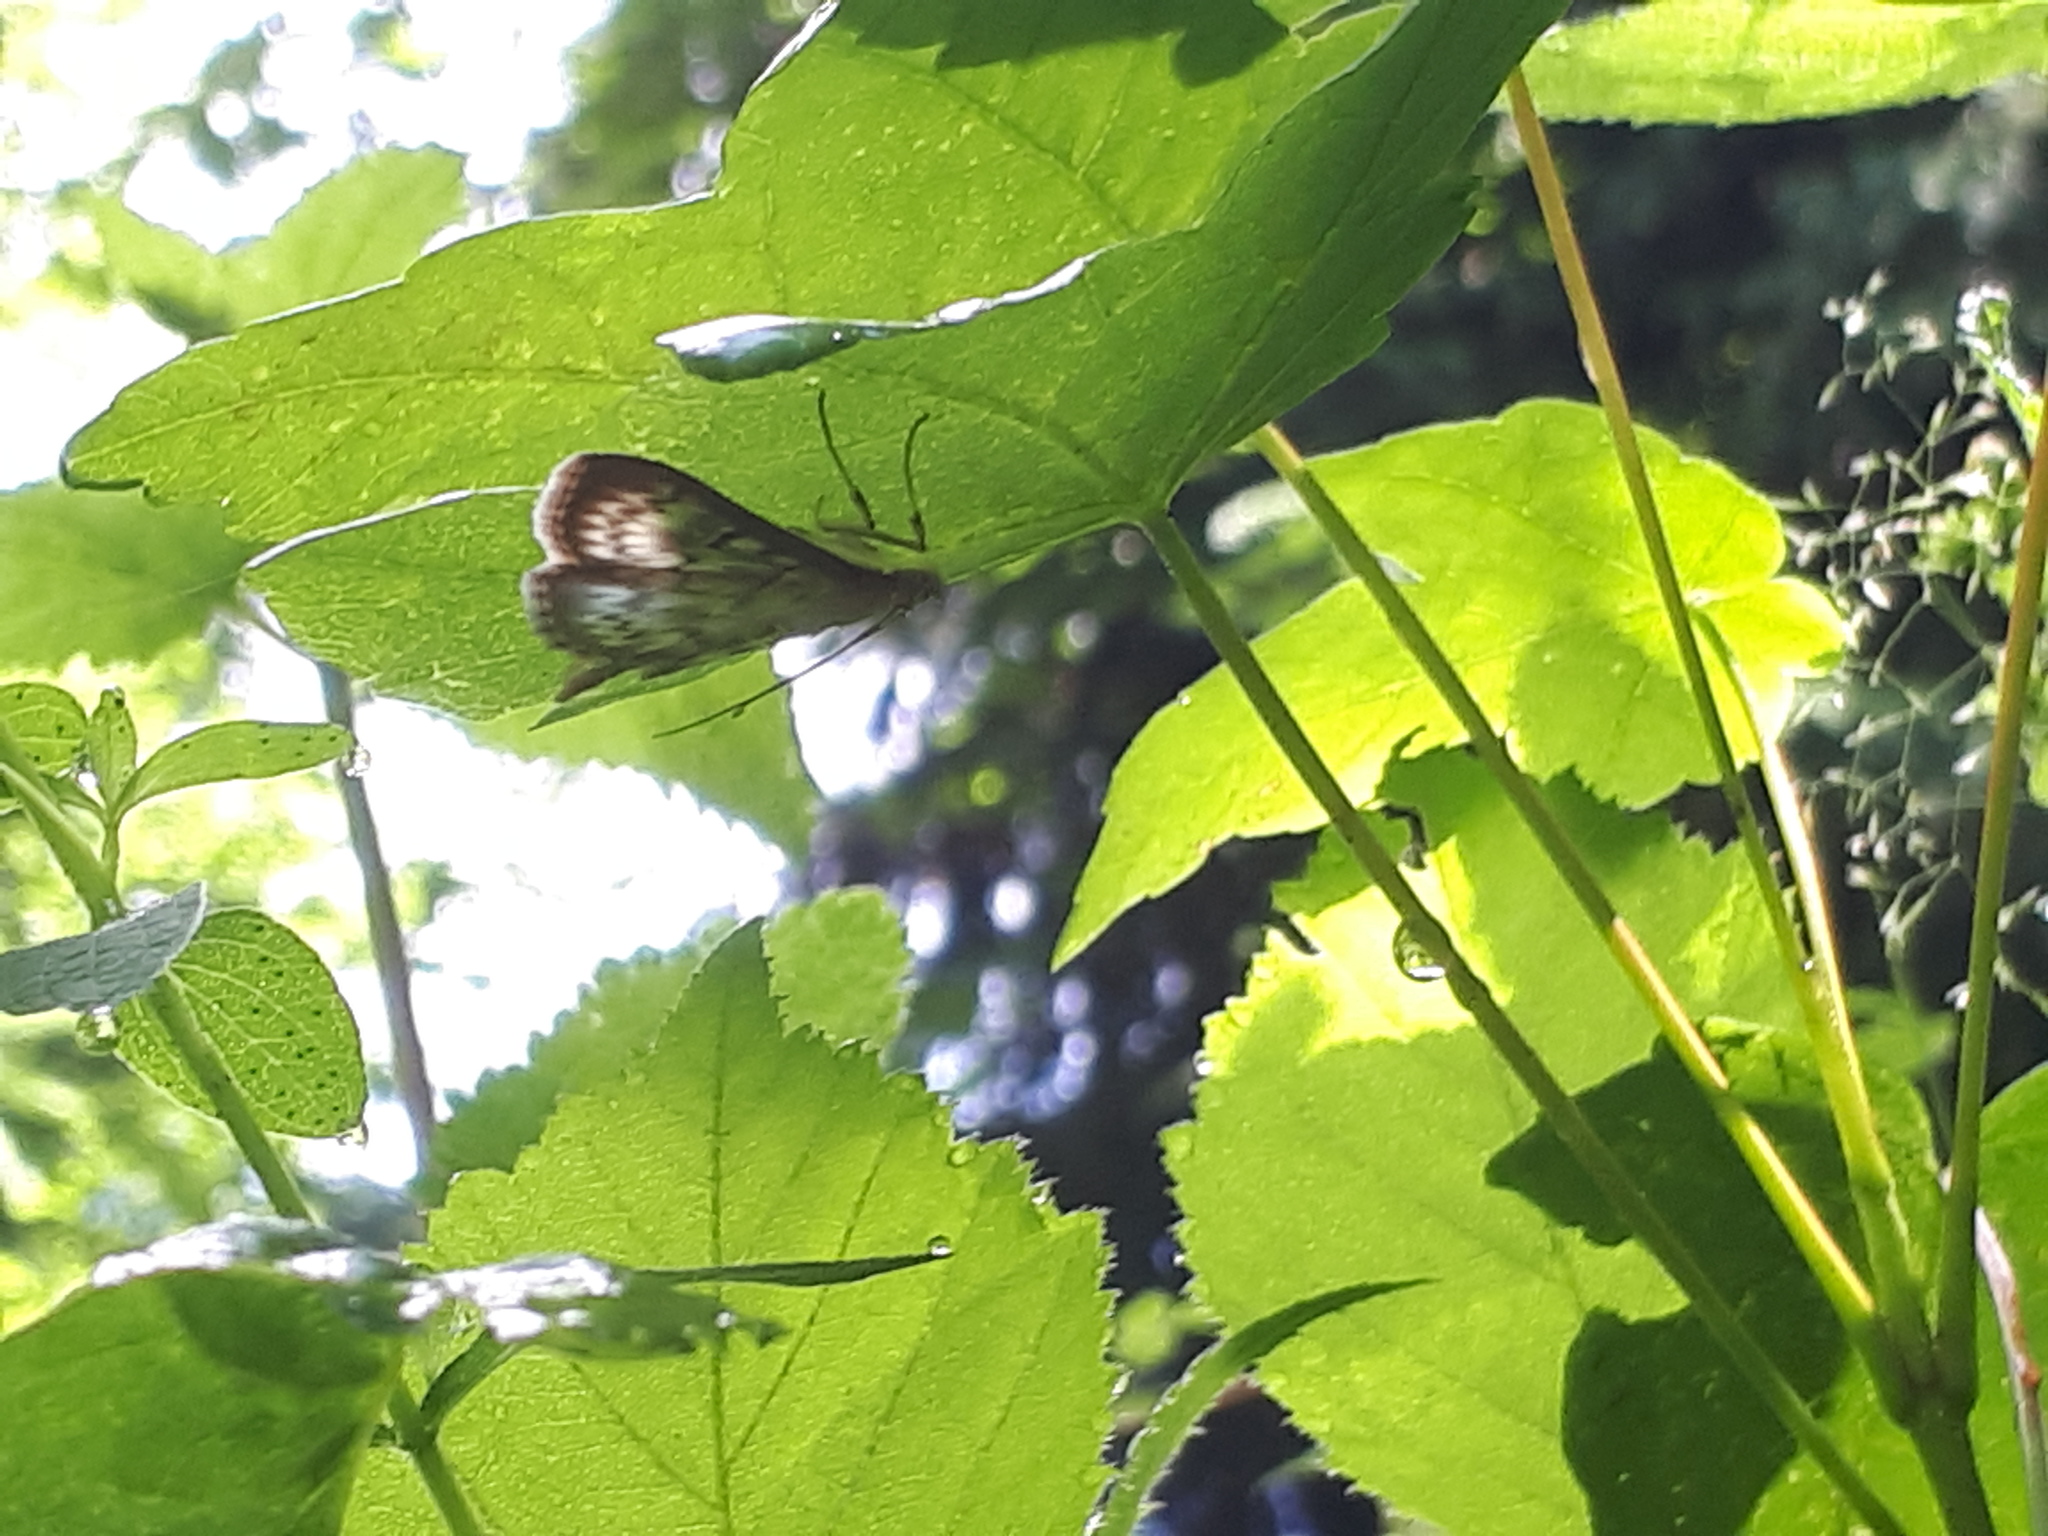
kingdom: Animalia
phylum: Arthropoda
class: Insecta
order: Lepidoptera
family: Crambidae
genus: Patania
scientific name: Patania ruralis
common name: Mother of pearl
